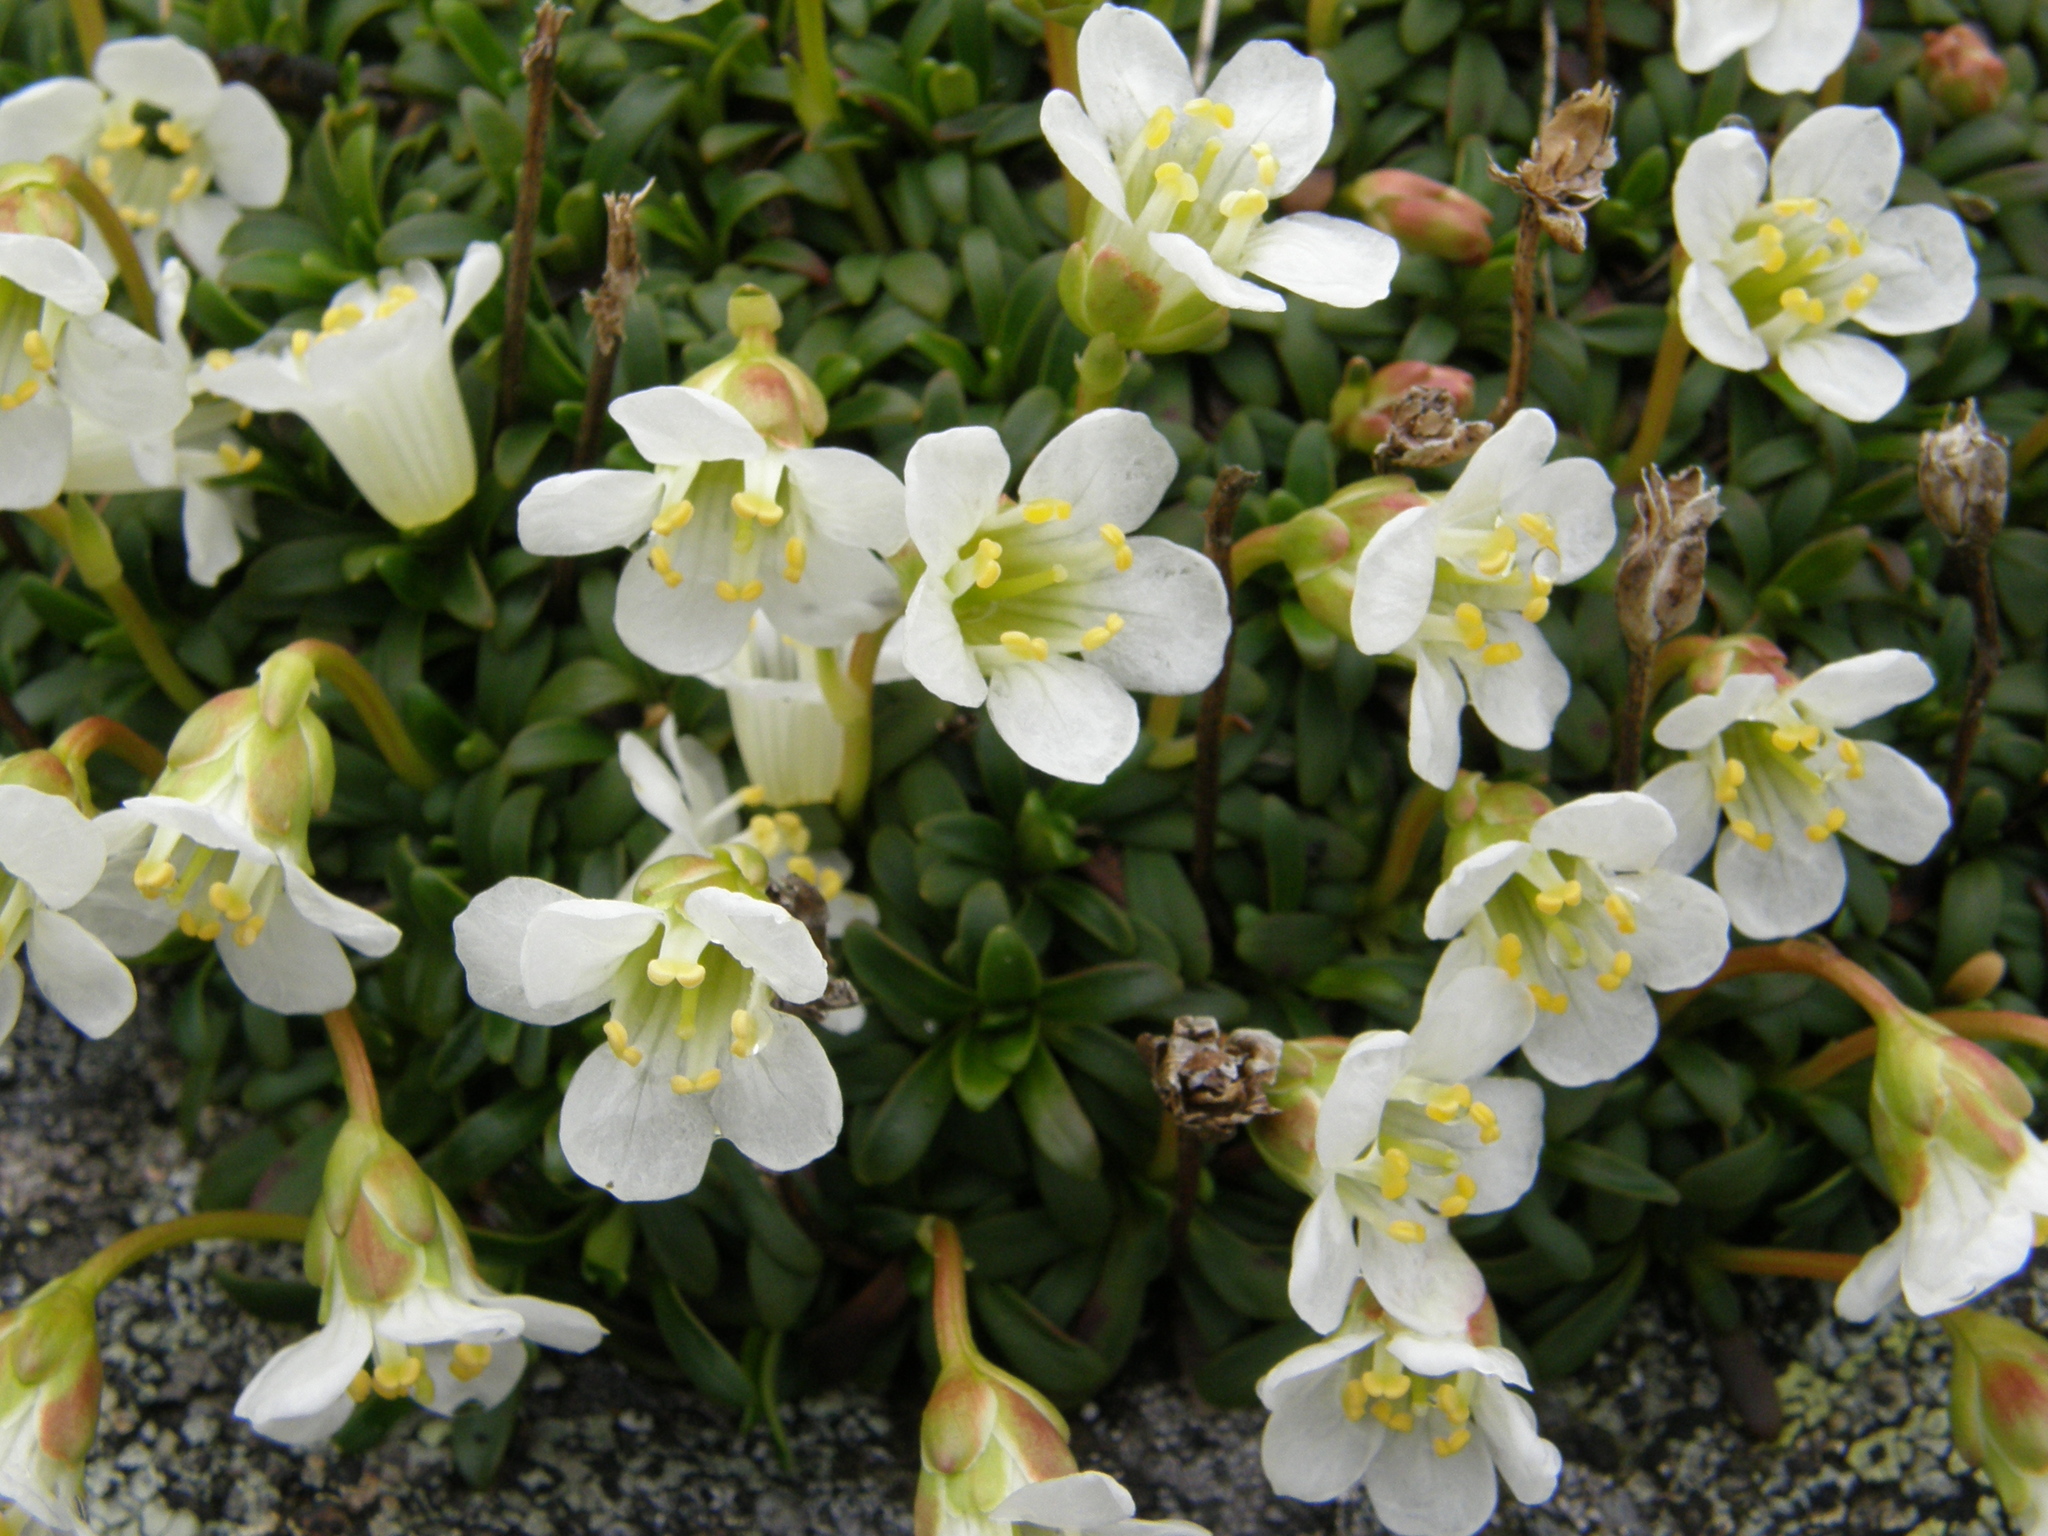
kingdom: Plantae
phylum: Tracheophyta
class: Magnoliopsida
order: Ericales
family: Diapensiaceae
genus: Diapensia
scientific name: Diapensia lapponica
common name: Diapensia
